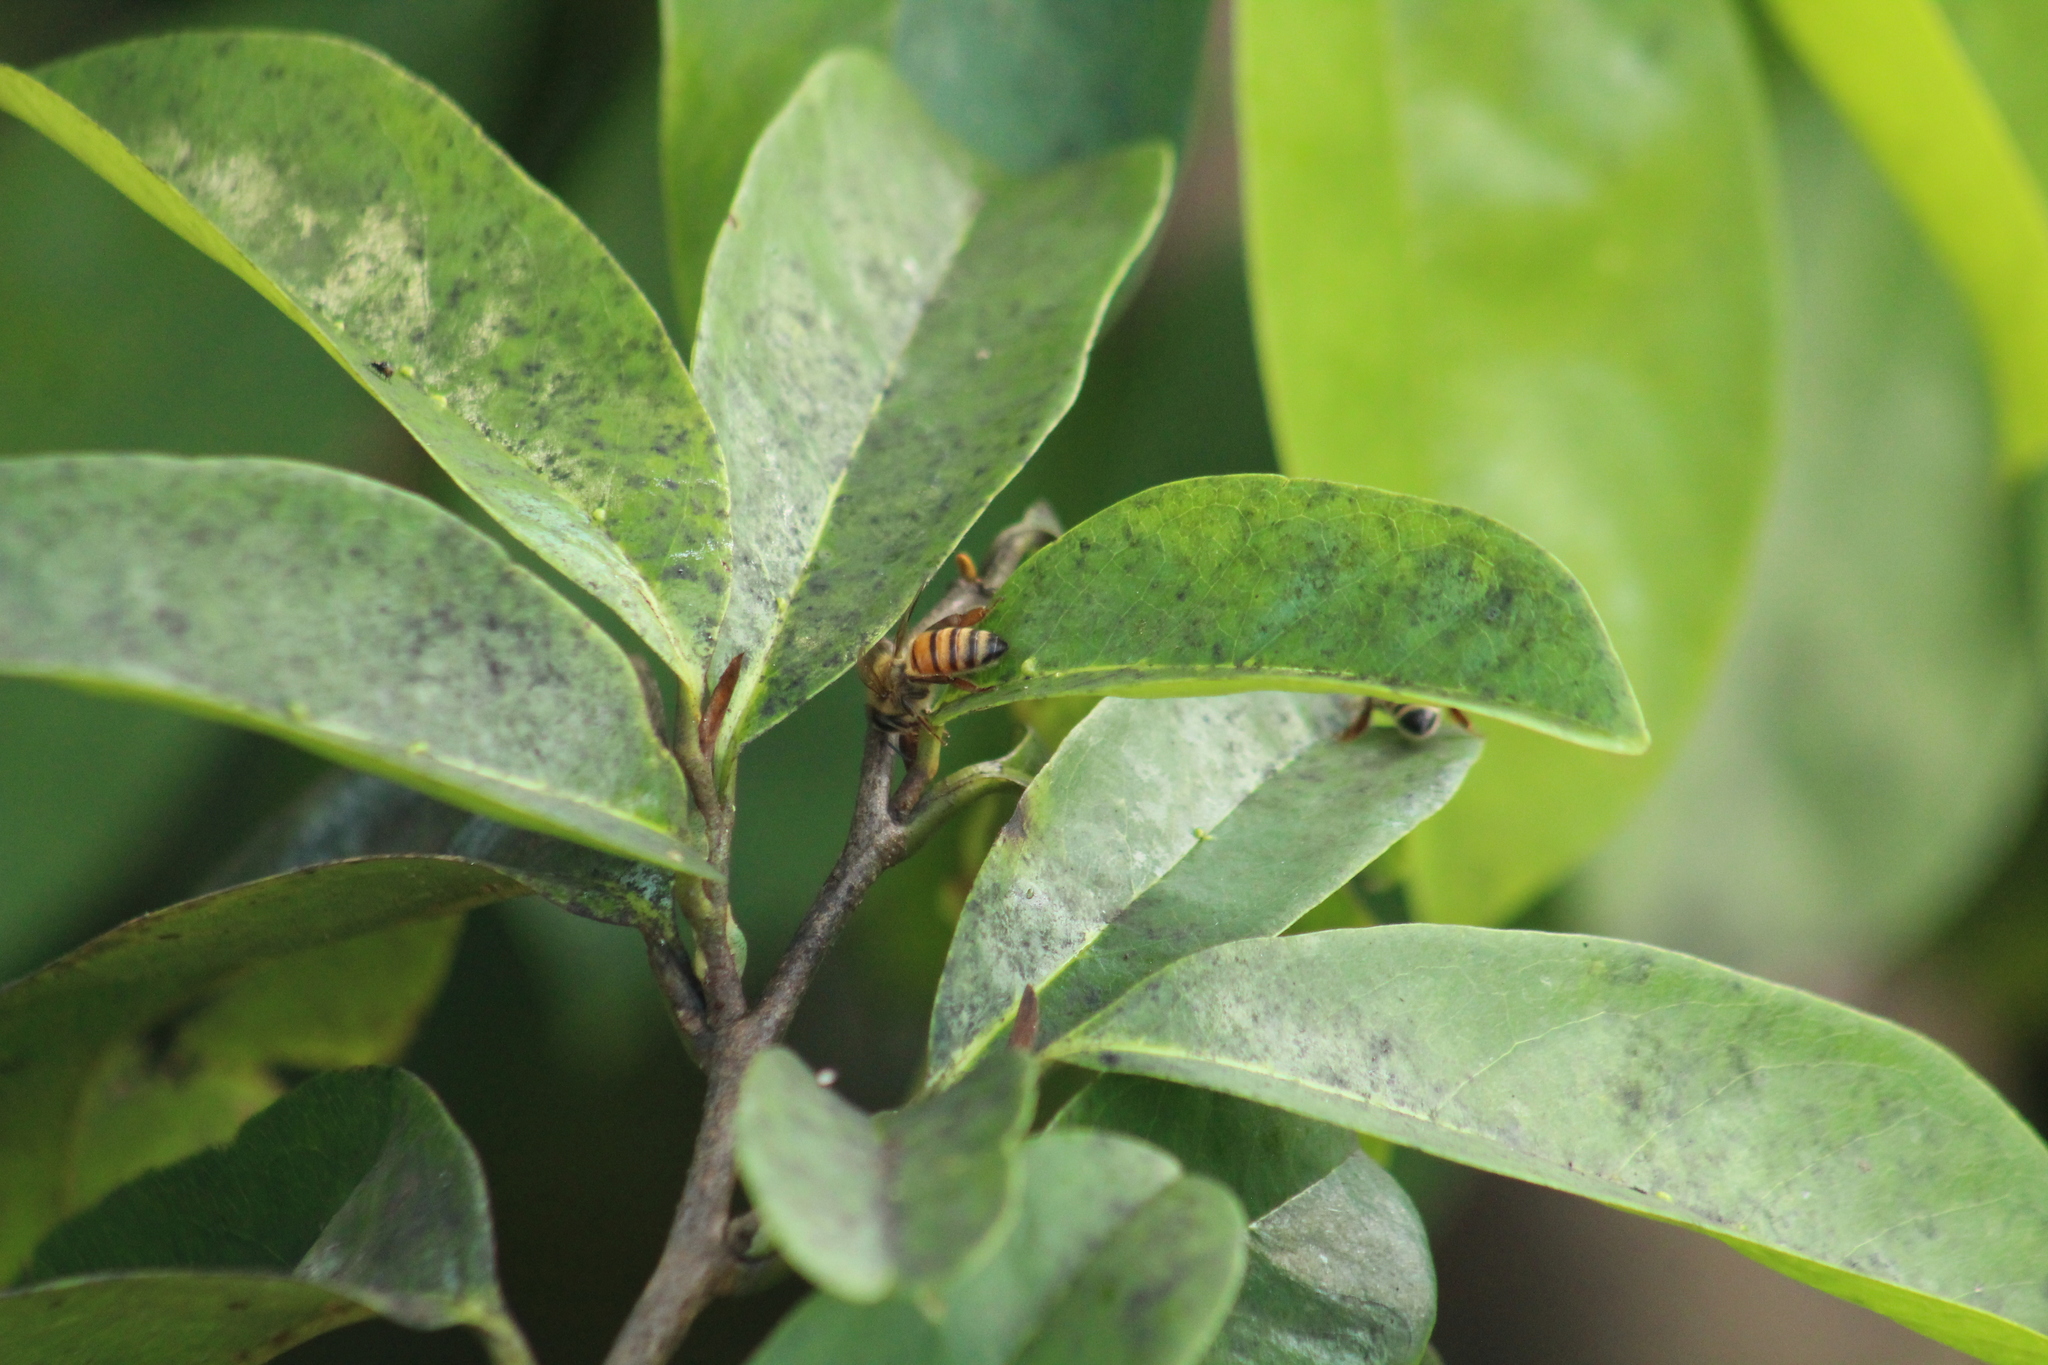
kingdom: Animalia
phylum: Arthropoda
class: Insecta
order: Hymenoptera
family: Apidae
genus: Apis
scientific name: Apis mellifera
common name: Honey bee
